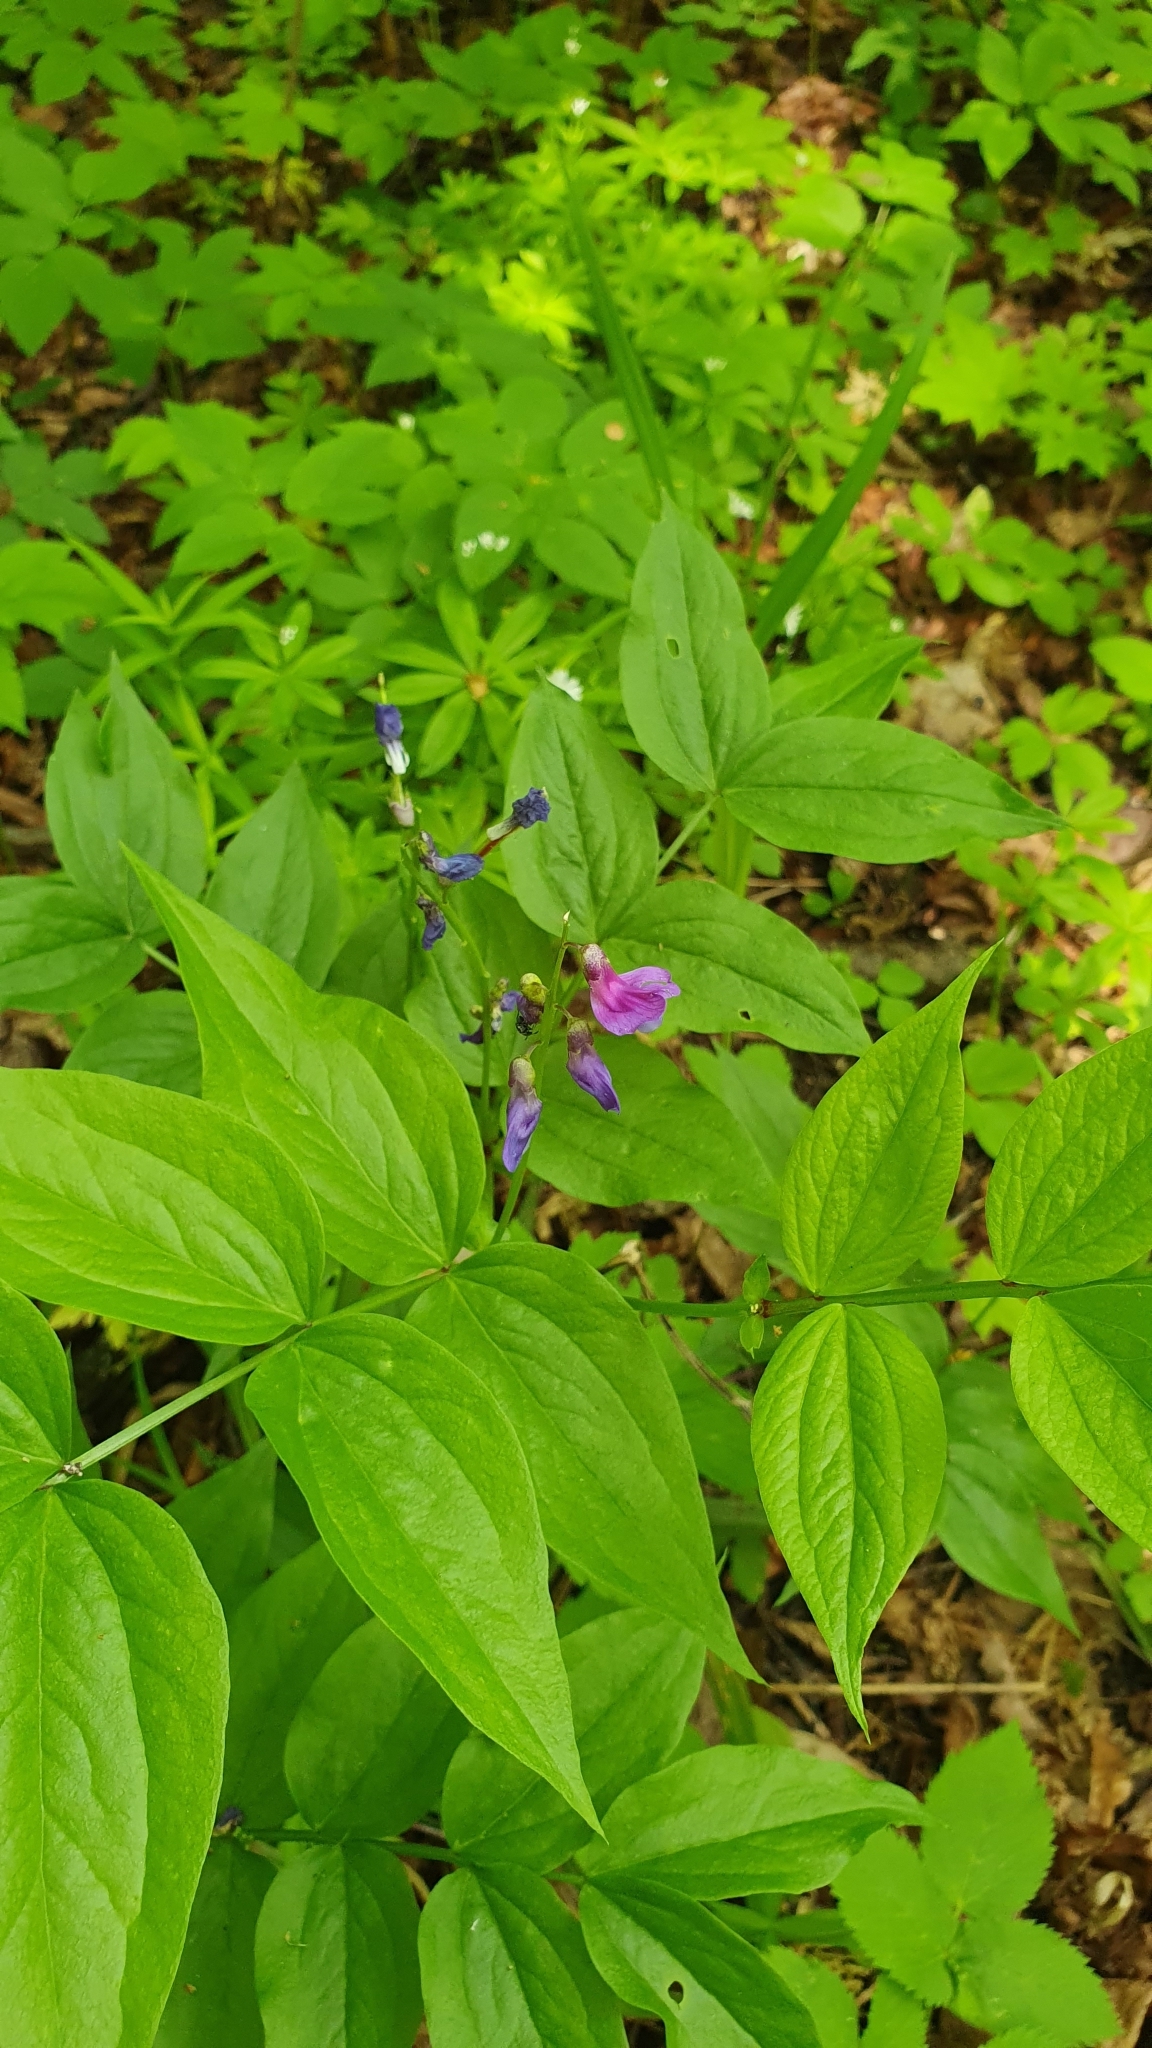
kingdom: Plantae
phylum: Tracheophyta
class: Magnoliopsida
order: Fabales
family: Fabaceae
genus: Lathyrus
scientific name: Lathyrus vernus
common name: Spring pea
